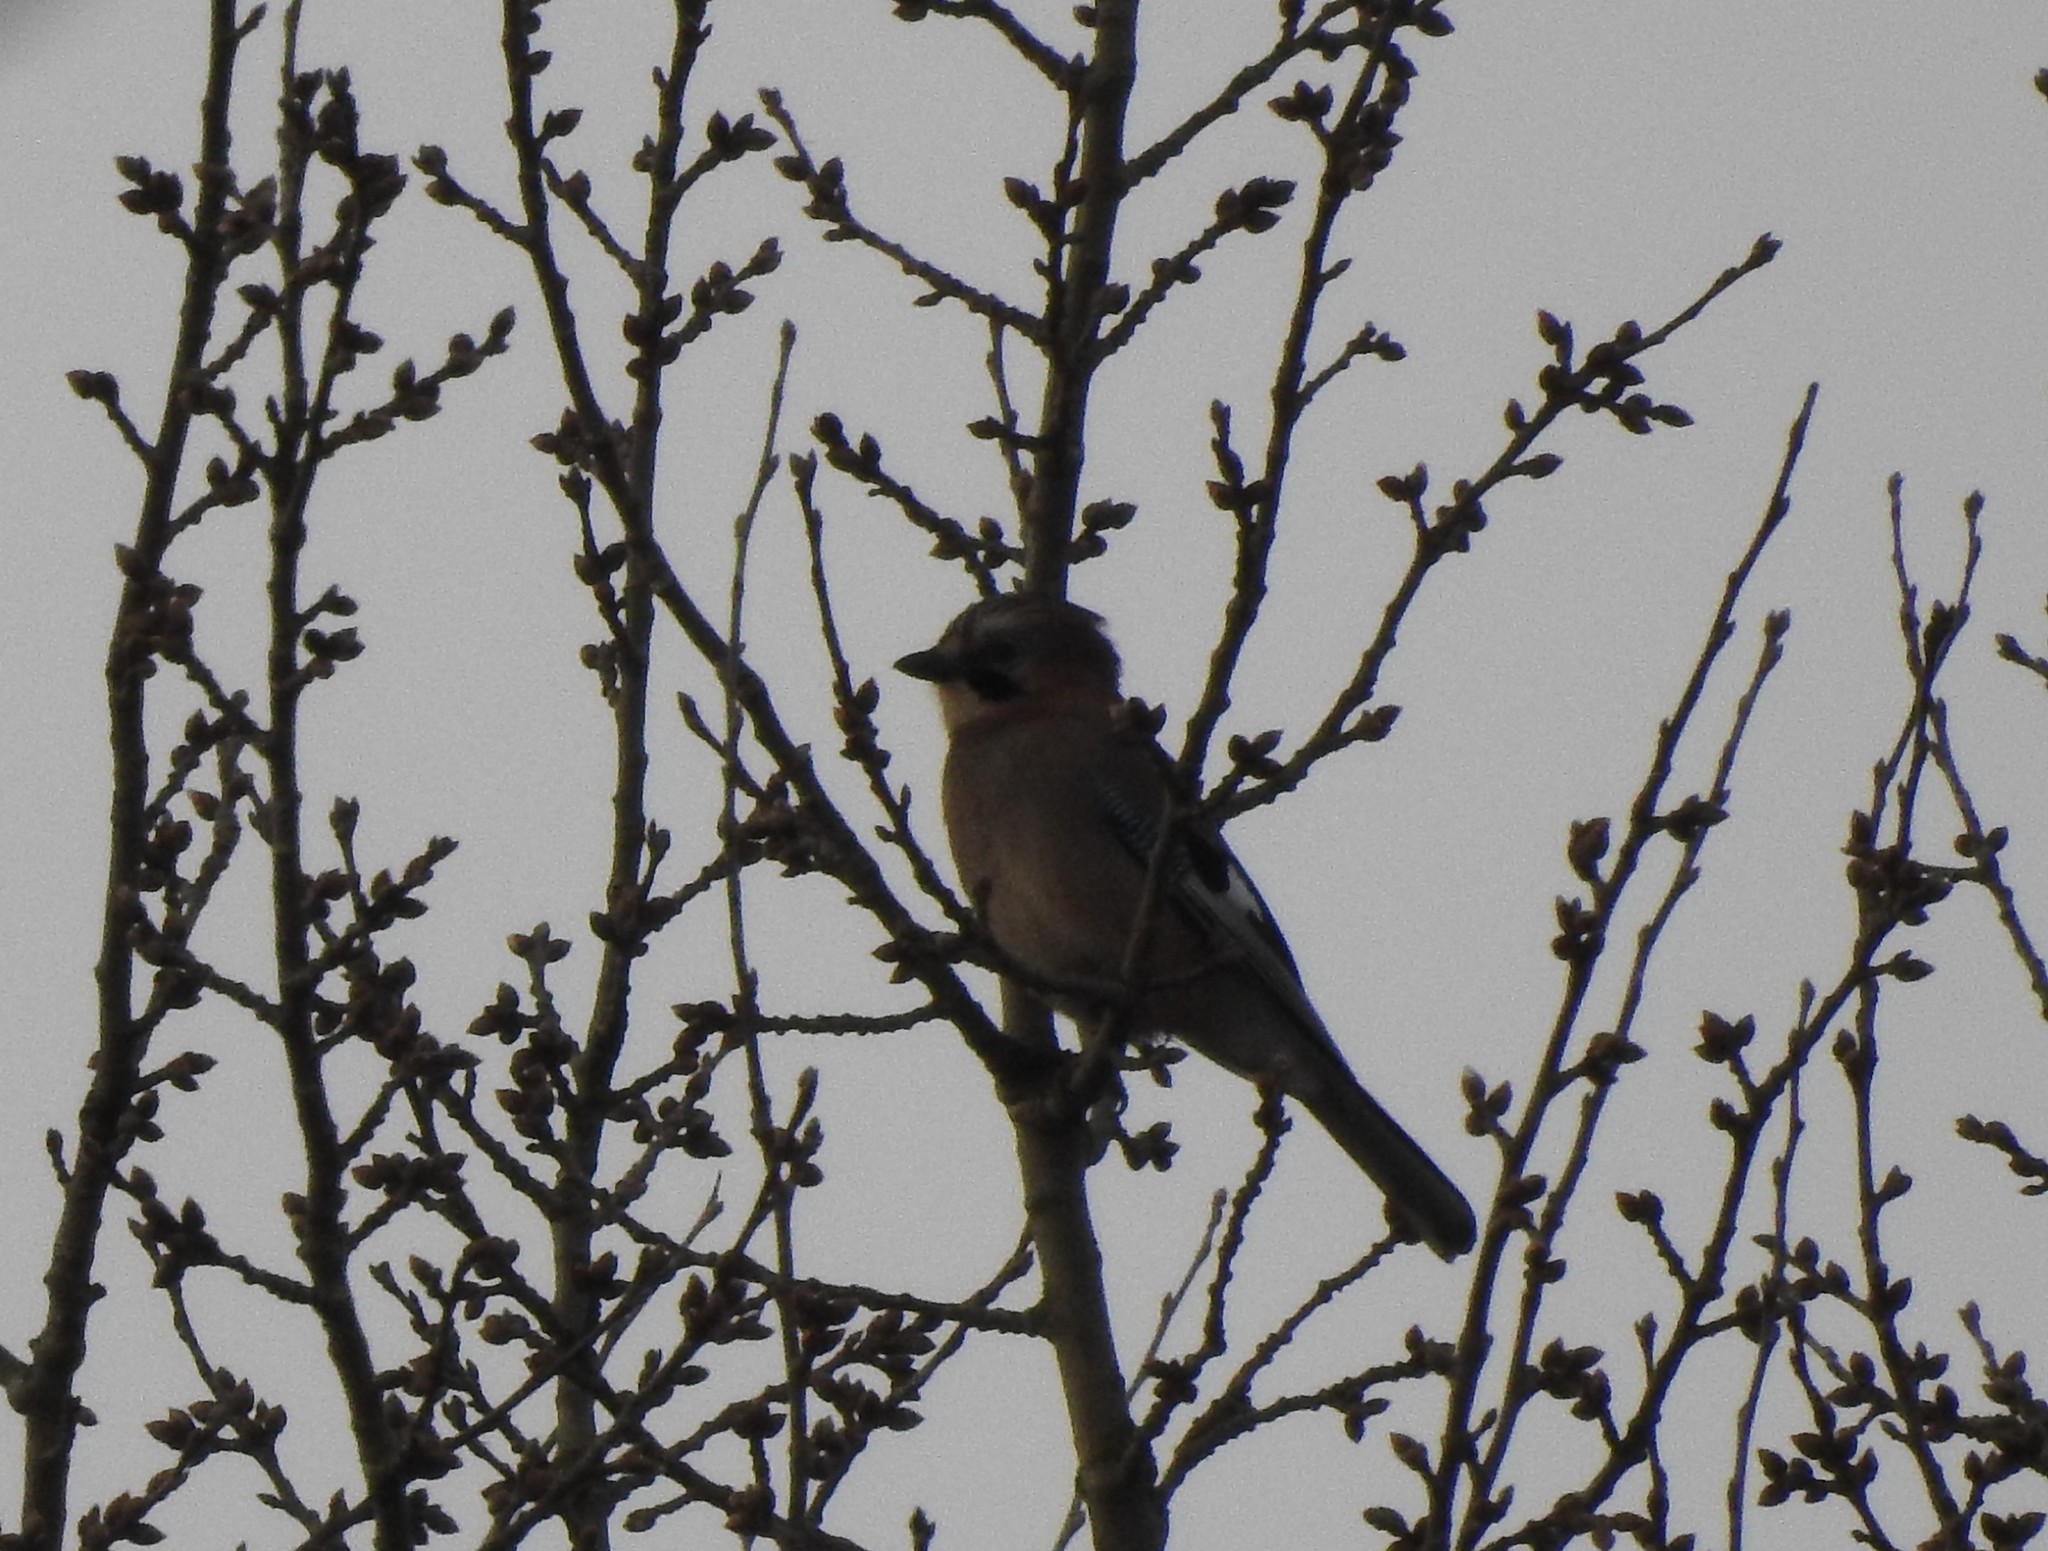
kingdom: Animalia
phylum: Chordata
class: Aves
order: Passeriformes
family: Corvidae
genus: Garrulus
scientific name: Garrulus glandarius
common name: Eurasian jay
